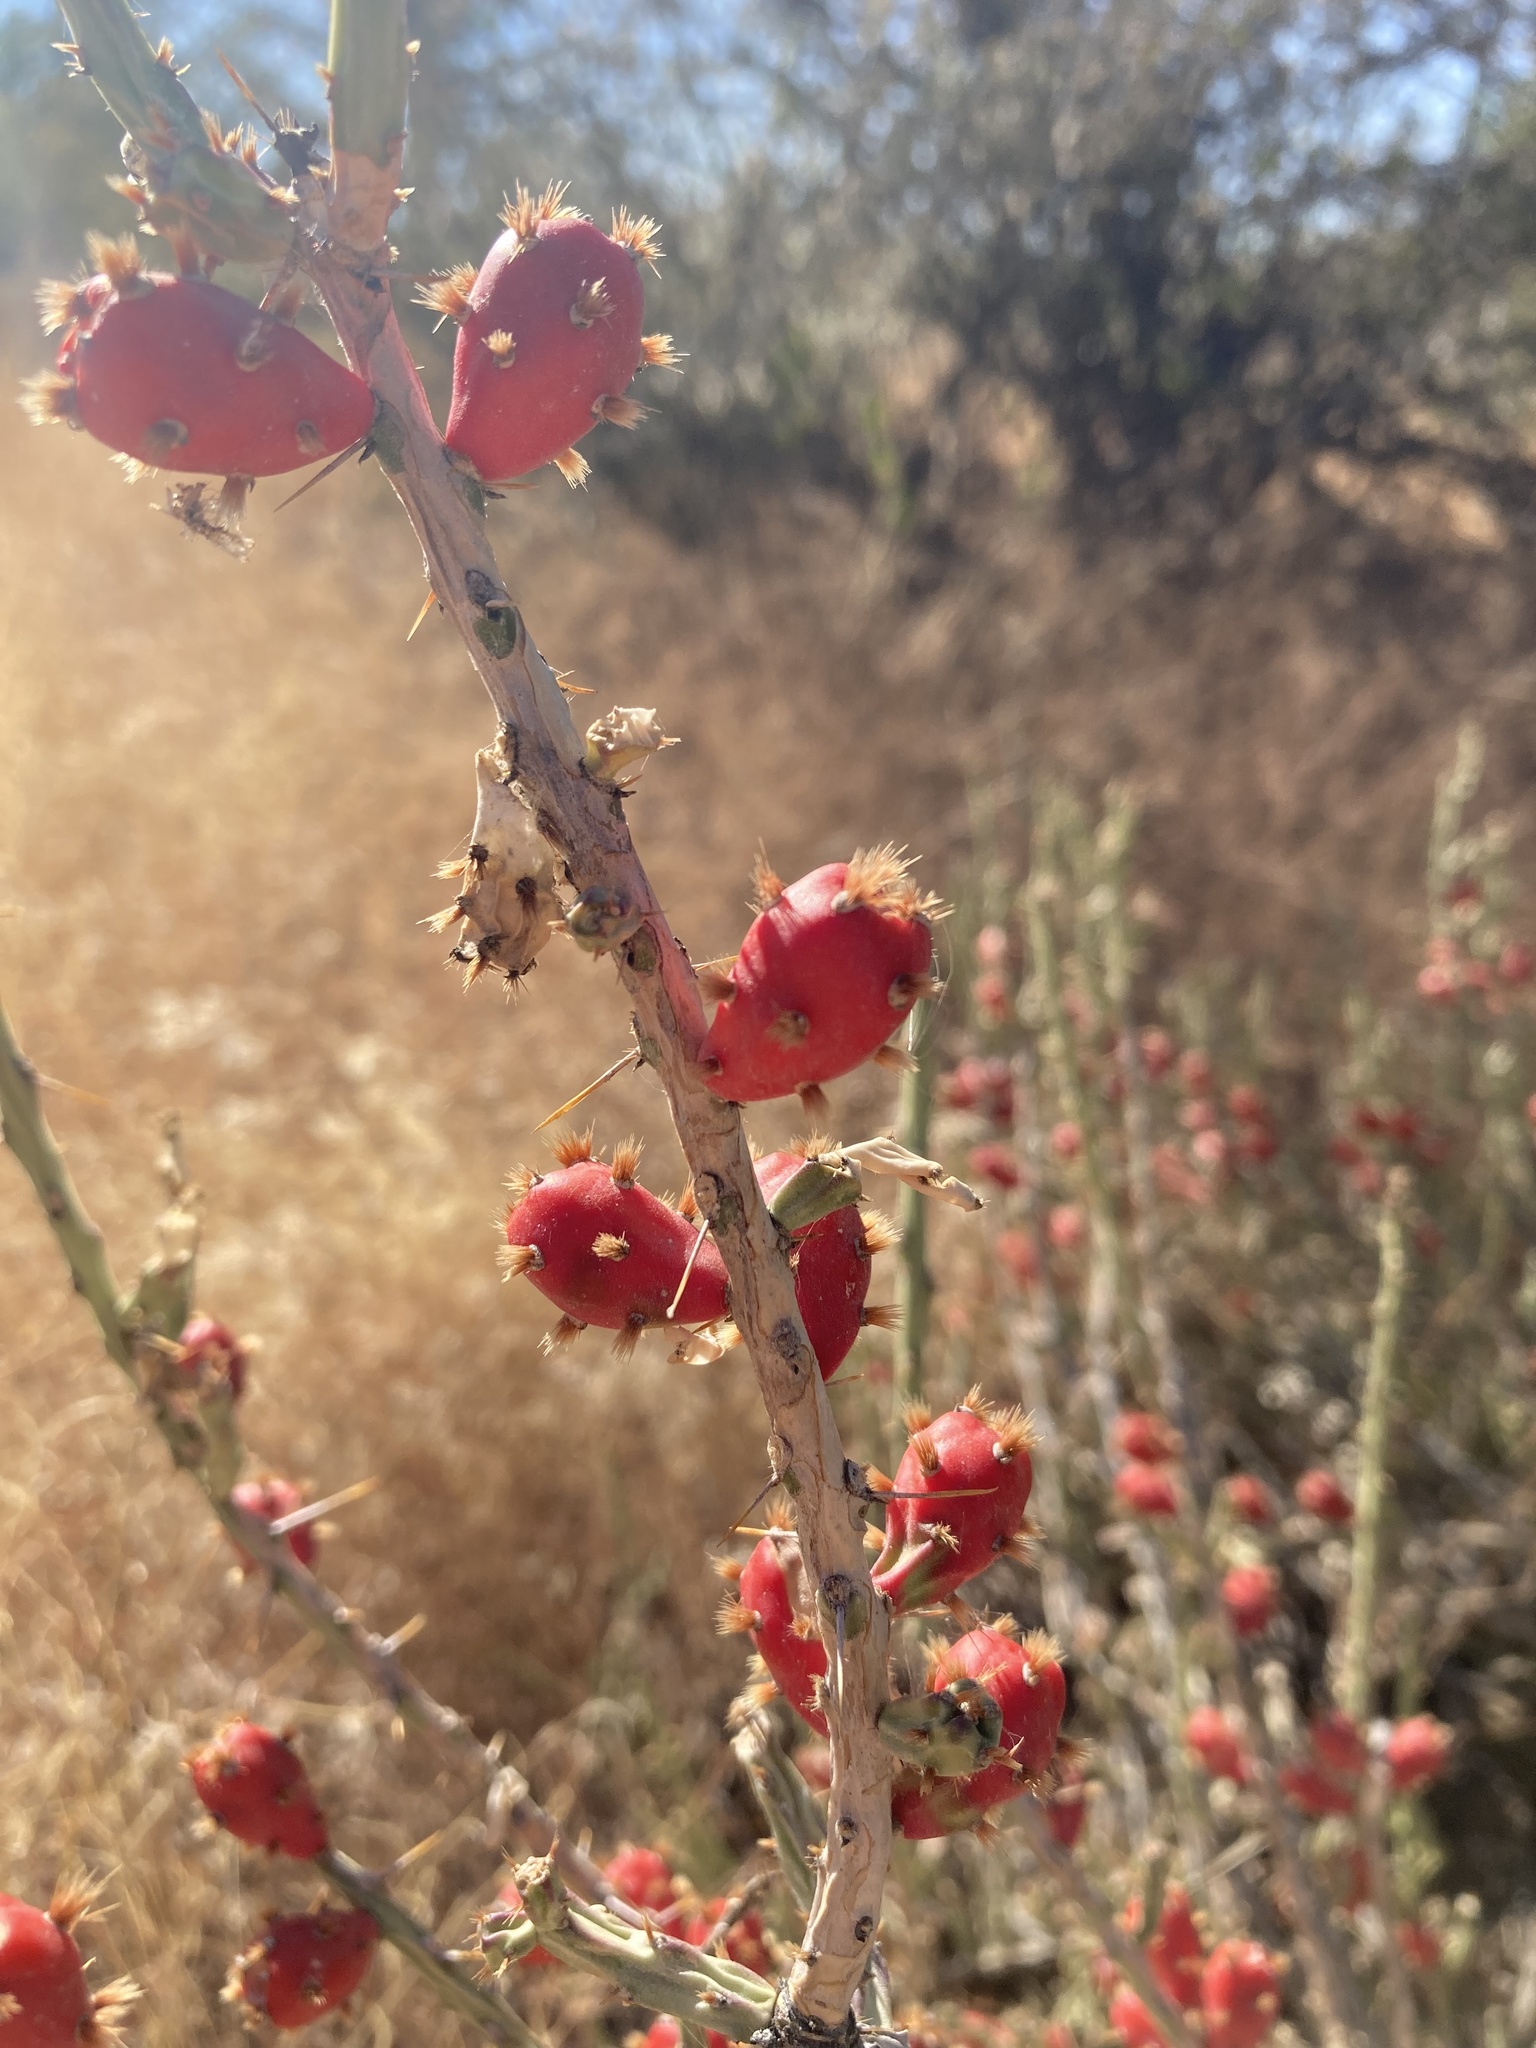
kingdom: Plantae
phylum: Tracheophyta
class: Magnoliopsida
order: Caryophyllales
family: Cactaceae
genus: Cylindropuntia
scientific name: Cylindropuntia leptocaulis
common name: Christmas cactus
